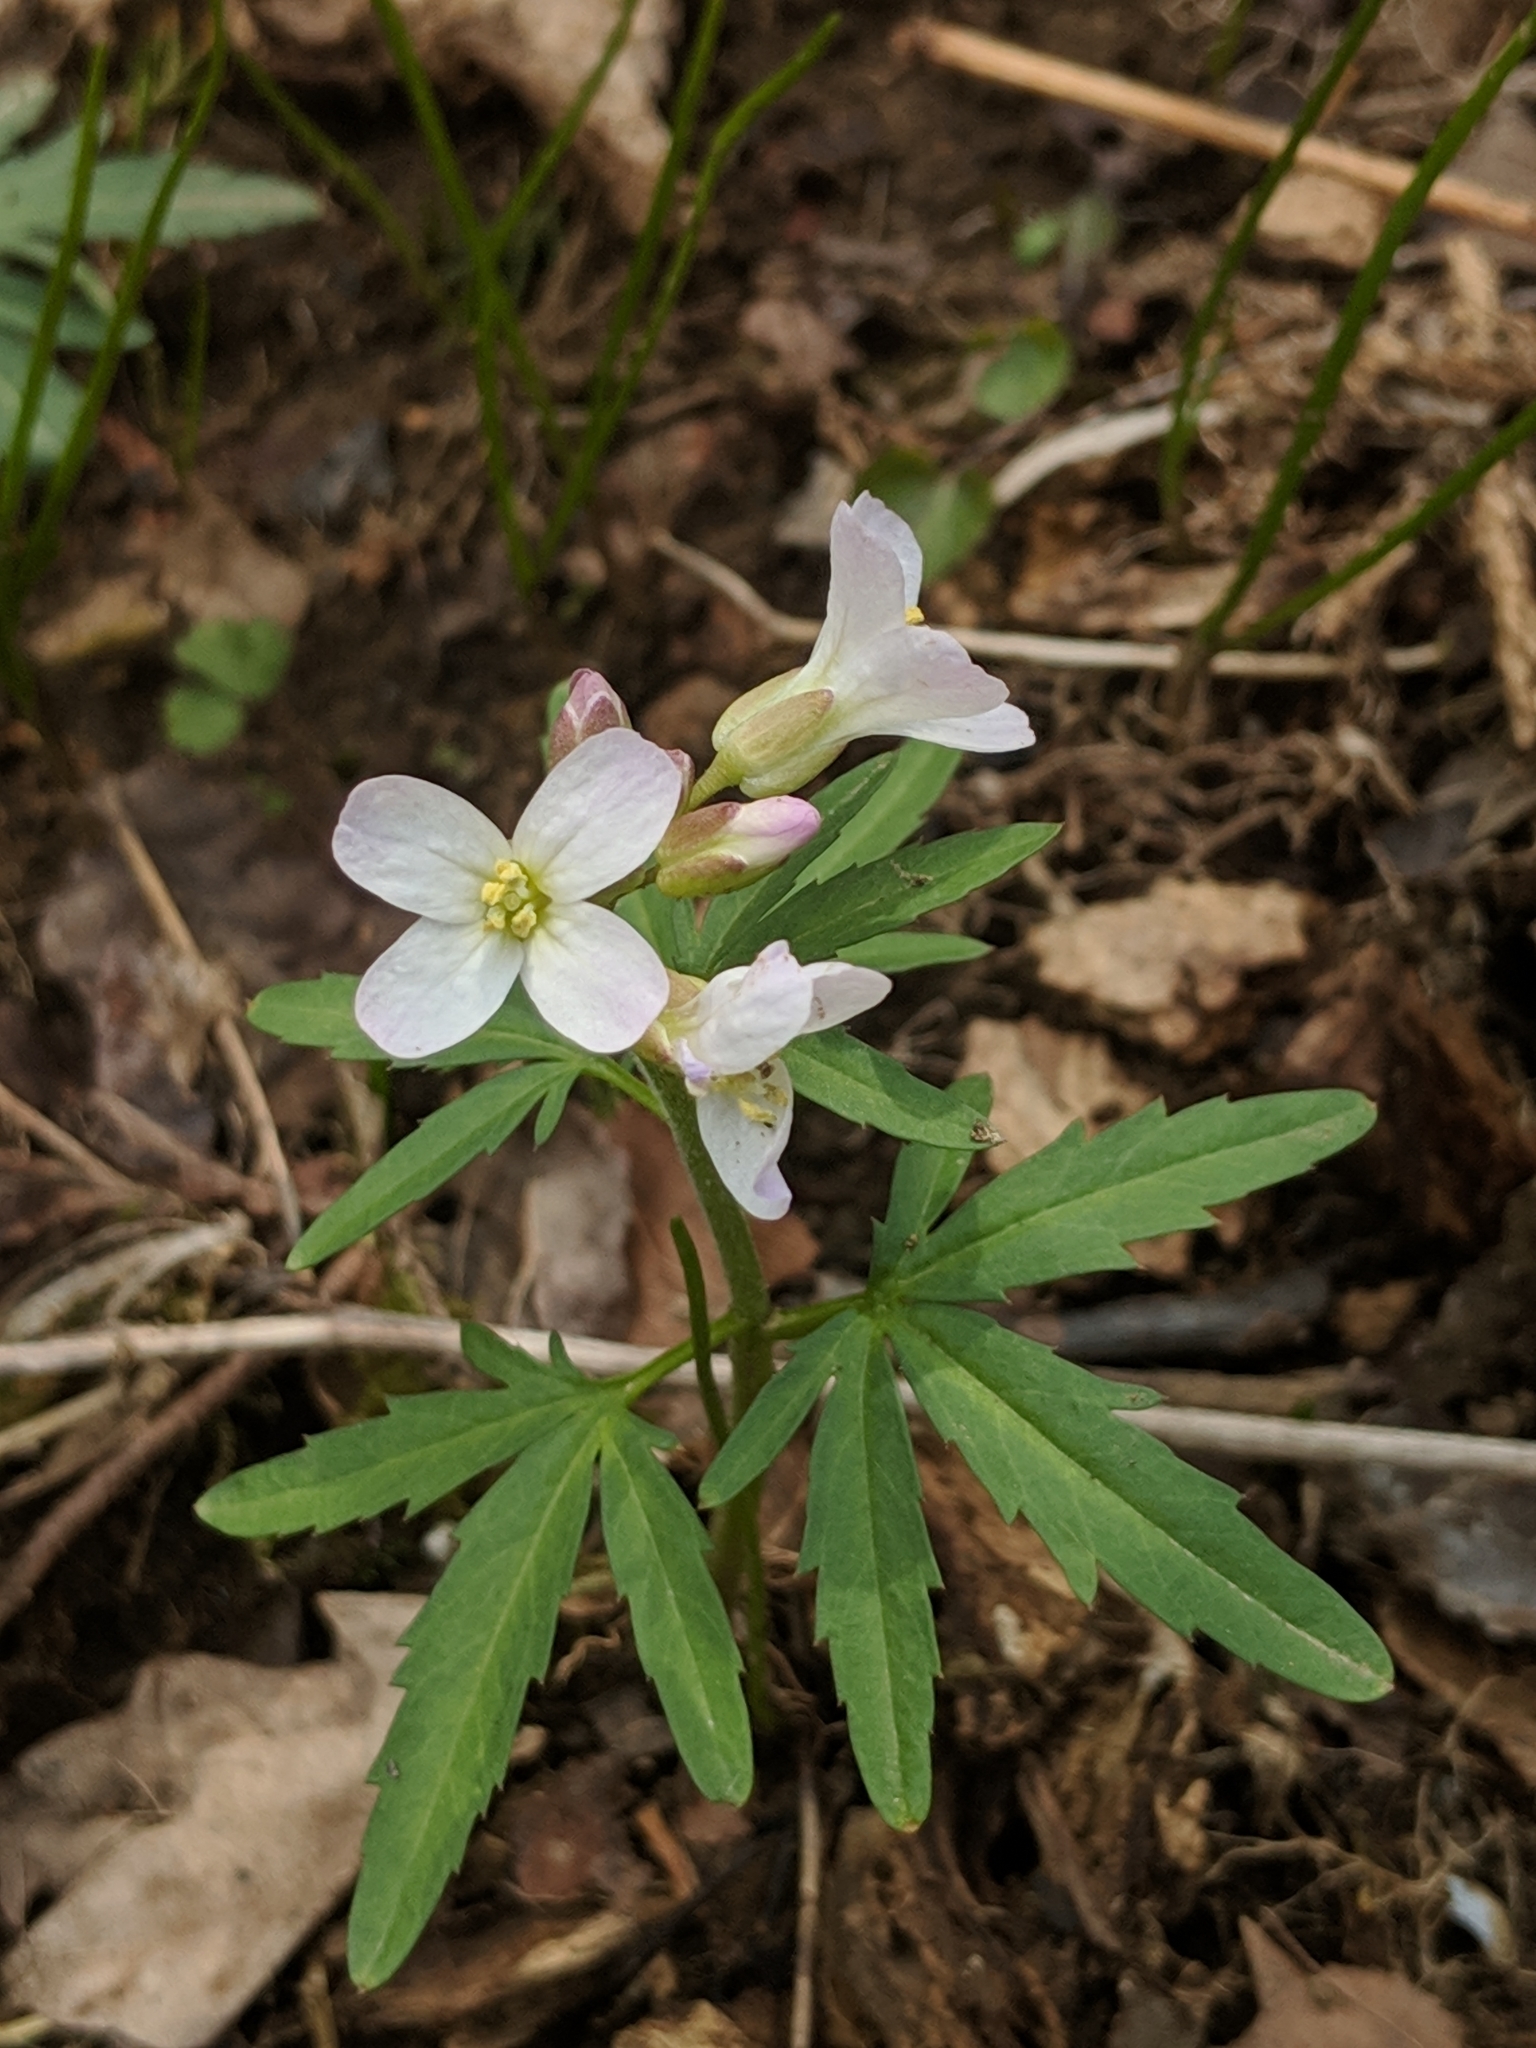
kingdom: Plantae
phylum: Tracheophyta
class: Magnoliopsida
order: Brassicales
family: Brassicaceae
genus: Cardamine
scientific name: Cardamine concatenata
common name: Cut-leaf toothcup
